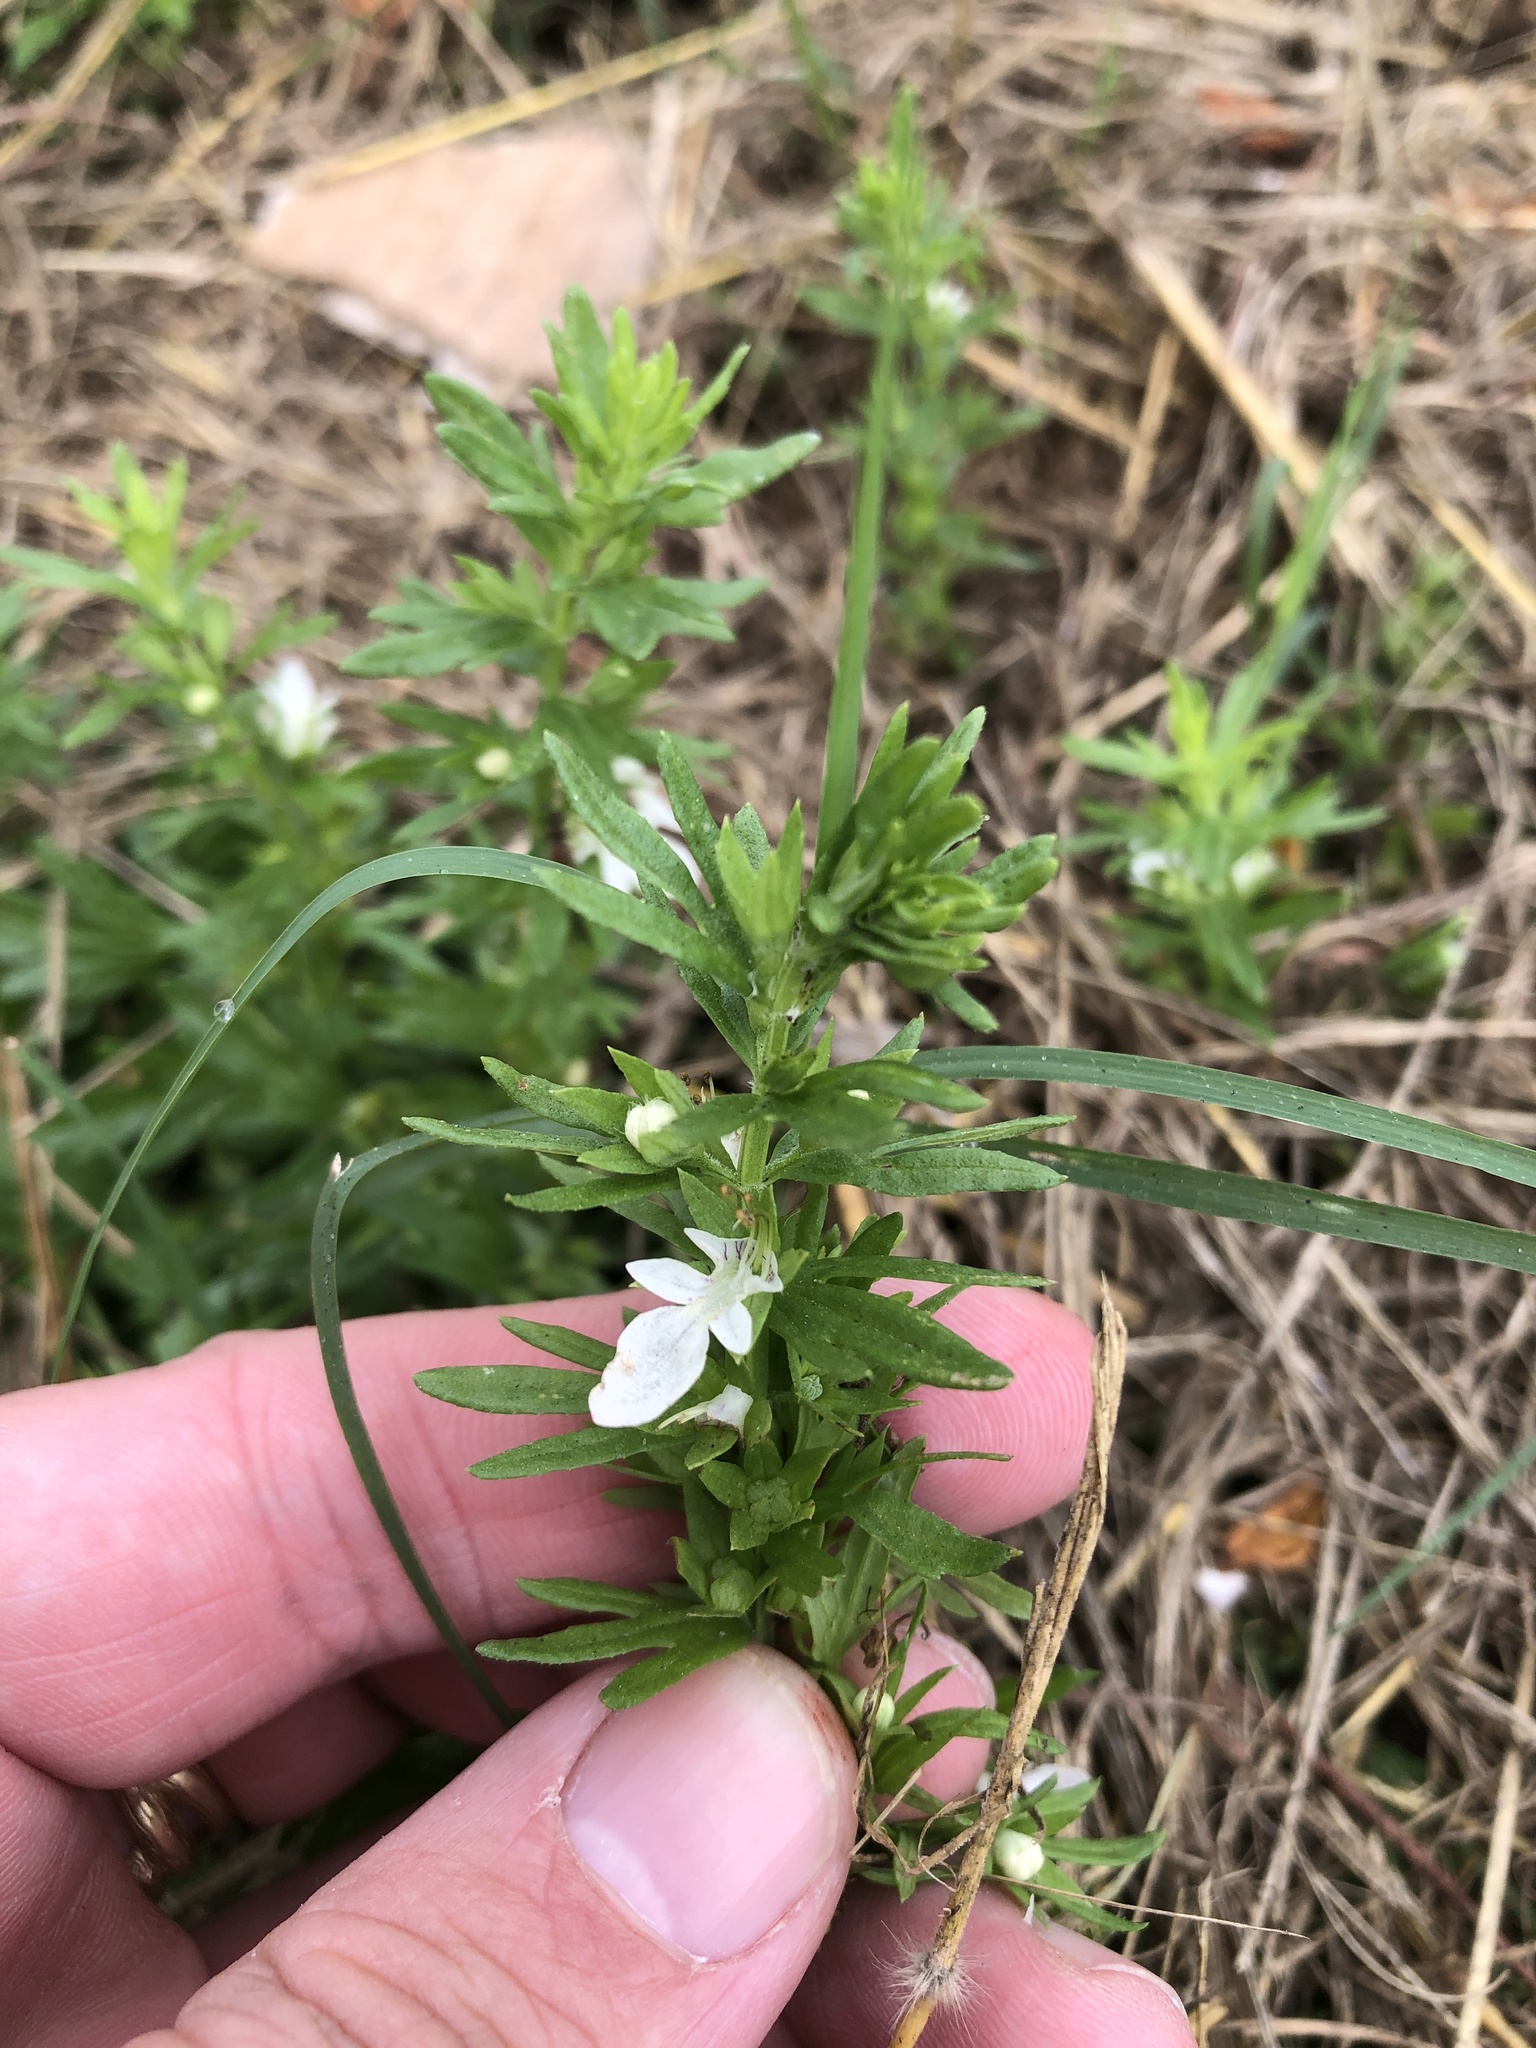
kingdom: Plantae
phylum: Tracheophyta
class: Magnoliopsida
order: Lamiales
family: Lamiaceae
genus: Teucrium
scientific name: Teucrium cubense
